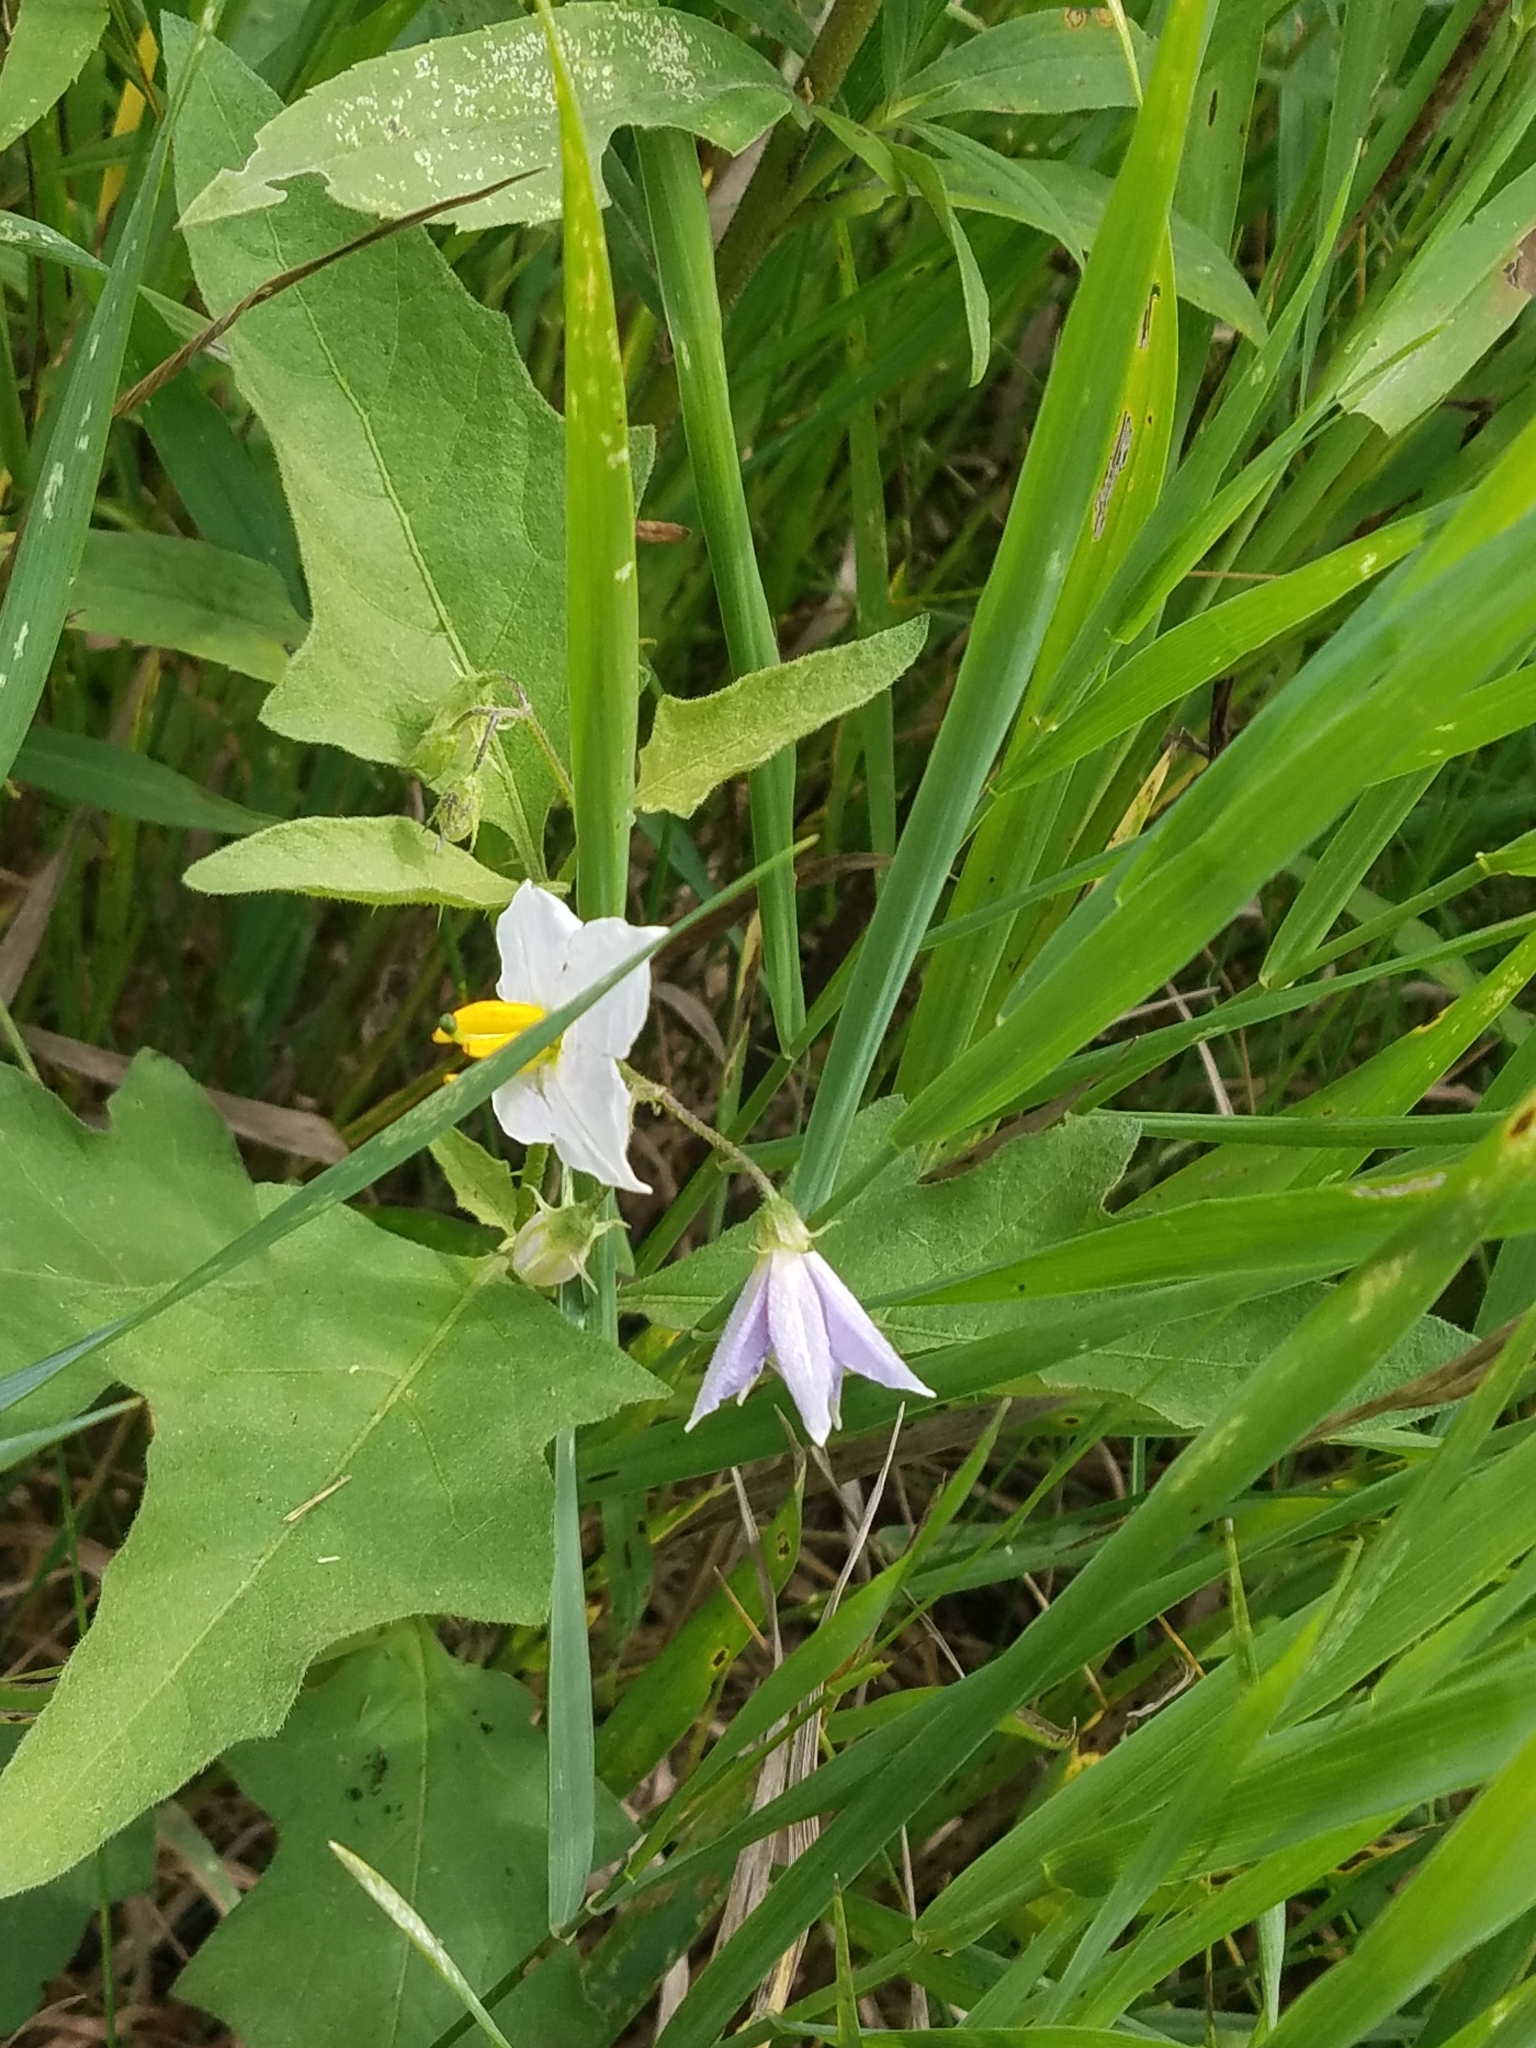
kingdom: Plantae
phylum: Tracheophyta
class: Magnoliopsida
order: Solanales
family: Solanaceae
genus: Solanum
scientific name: Solanum carolinense
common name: Horse-nettle
